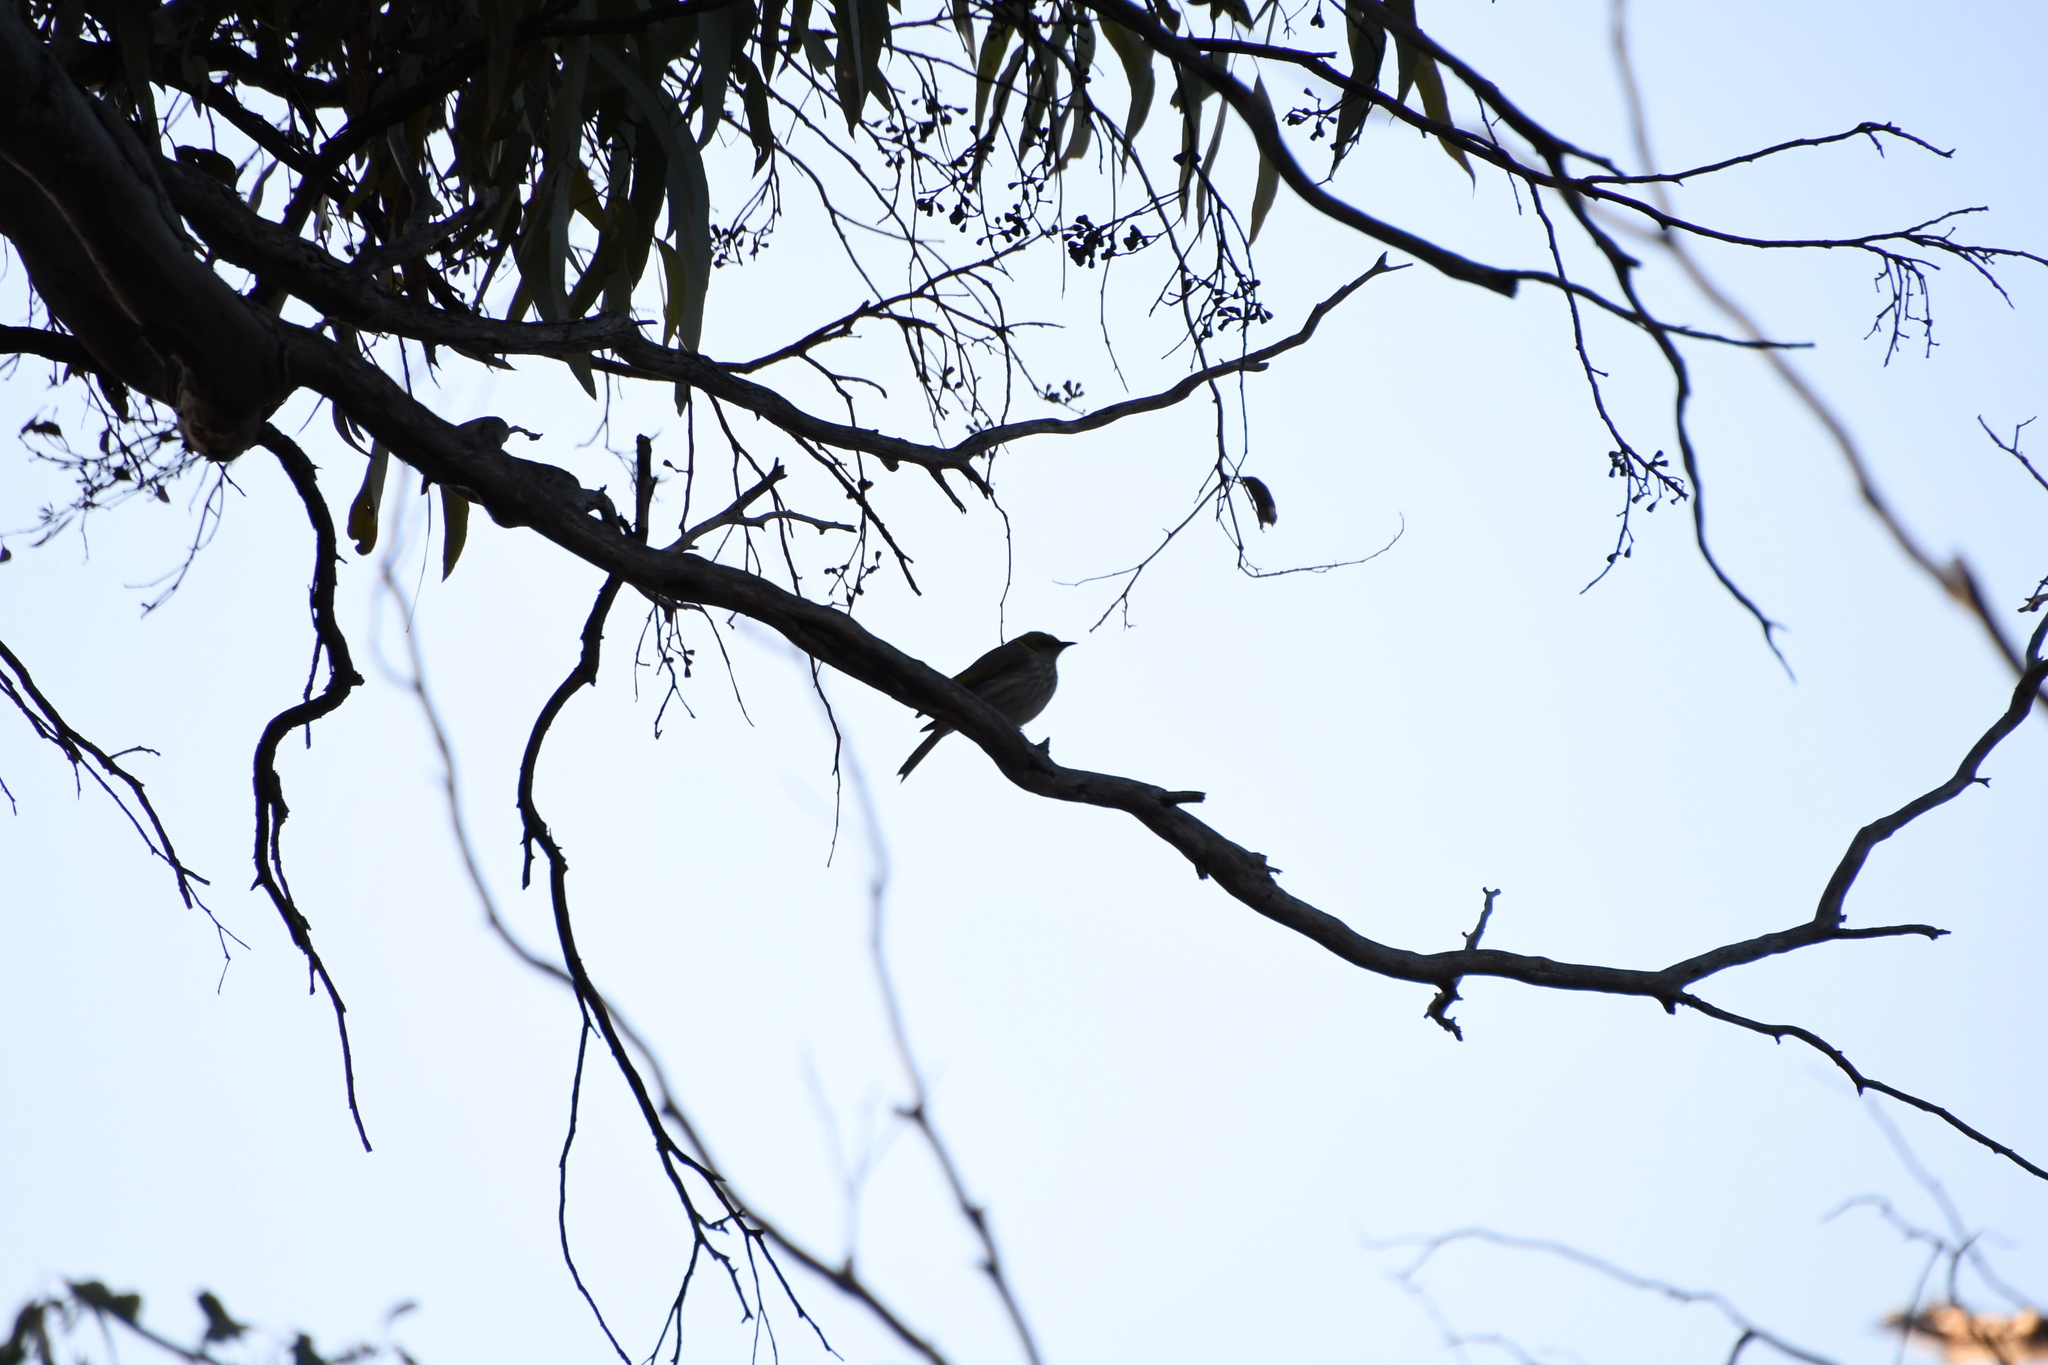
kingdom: Animalia
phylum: Chordata
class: Aves
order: Passeriformes
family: Meliphagidae
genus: Ptilotula
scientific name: Ptilotula ornata
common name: Yellow-plumed honeyeater
